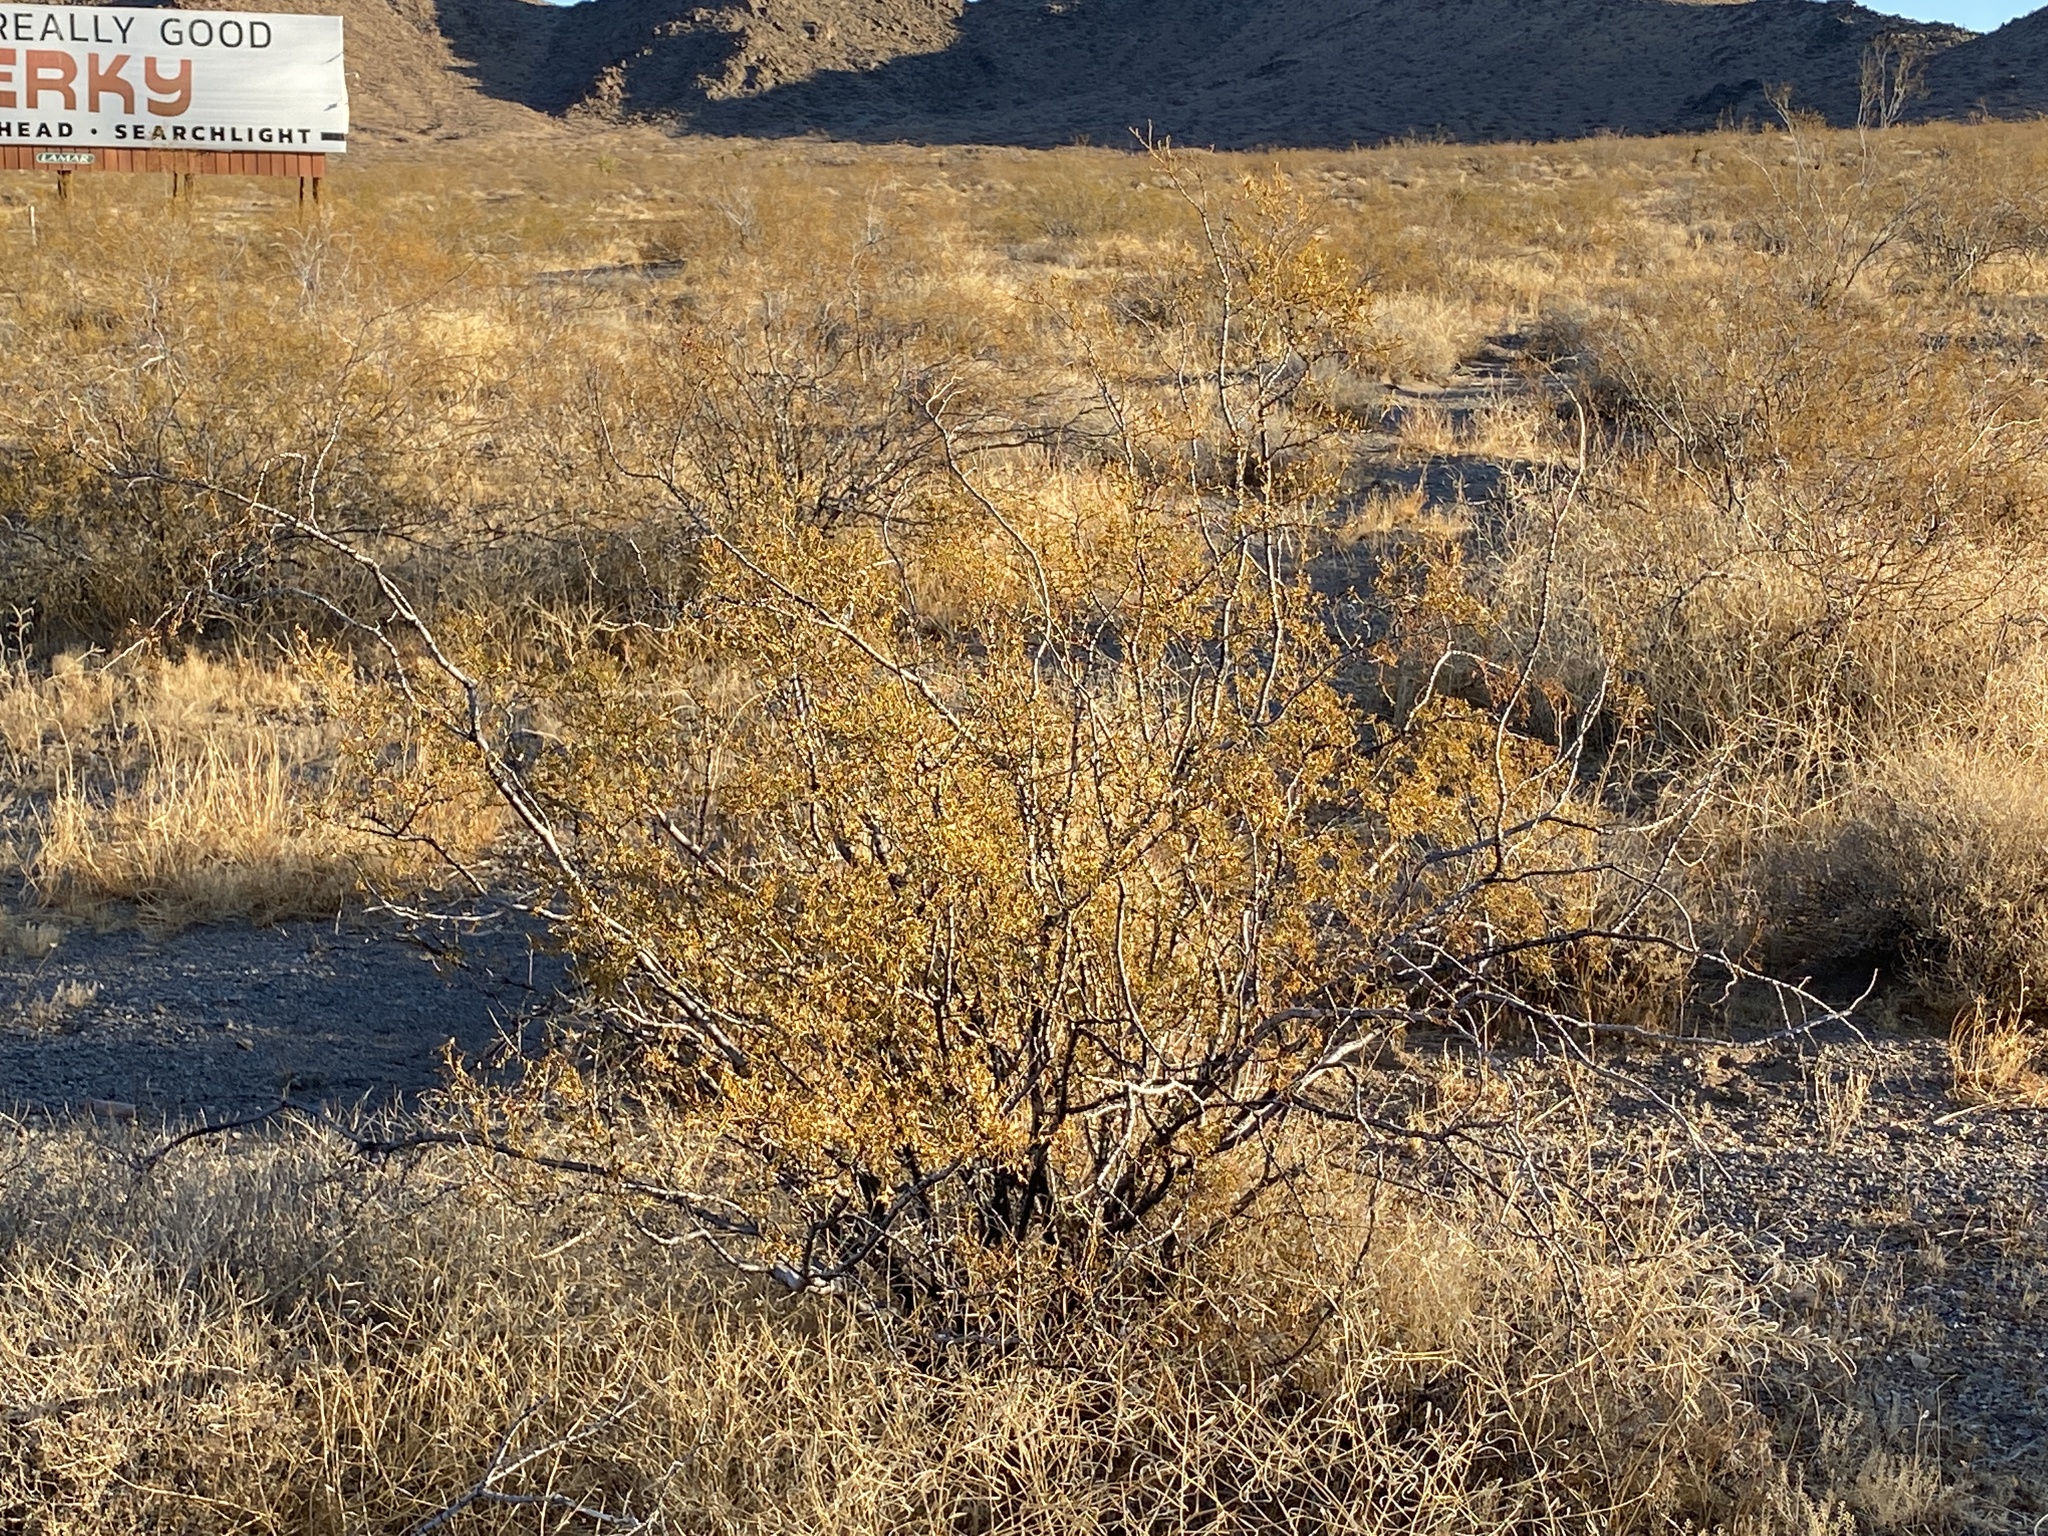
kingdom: Plantae
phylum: Tracheophyta
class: Magnoliopsida
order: Zygophyllales
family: Zygophyllaceae
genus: Larrea
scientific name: Larrea tridentata
